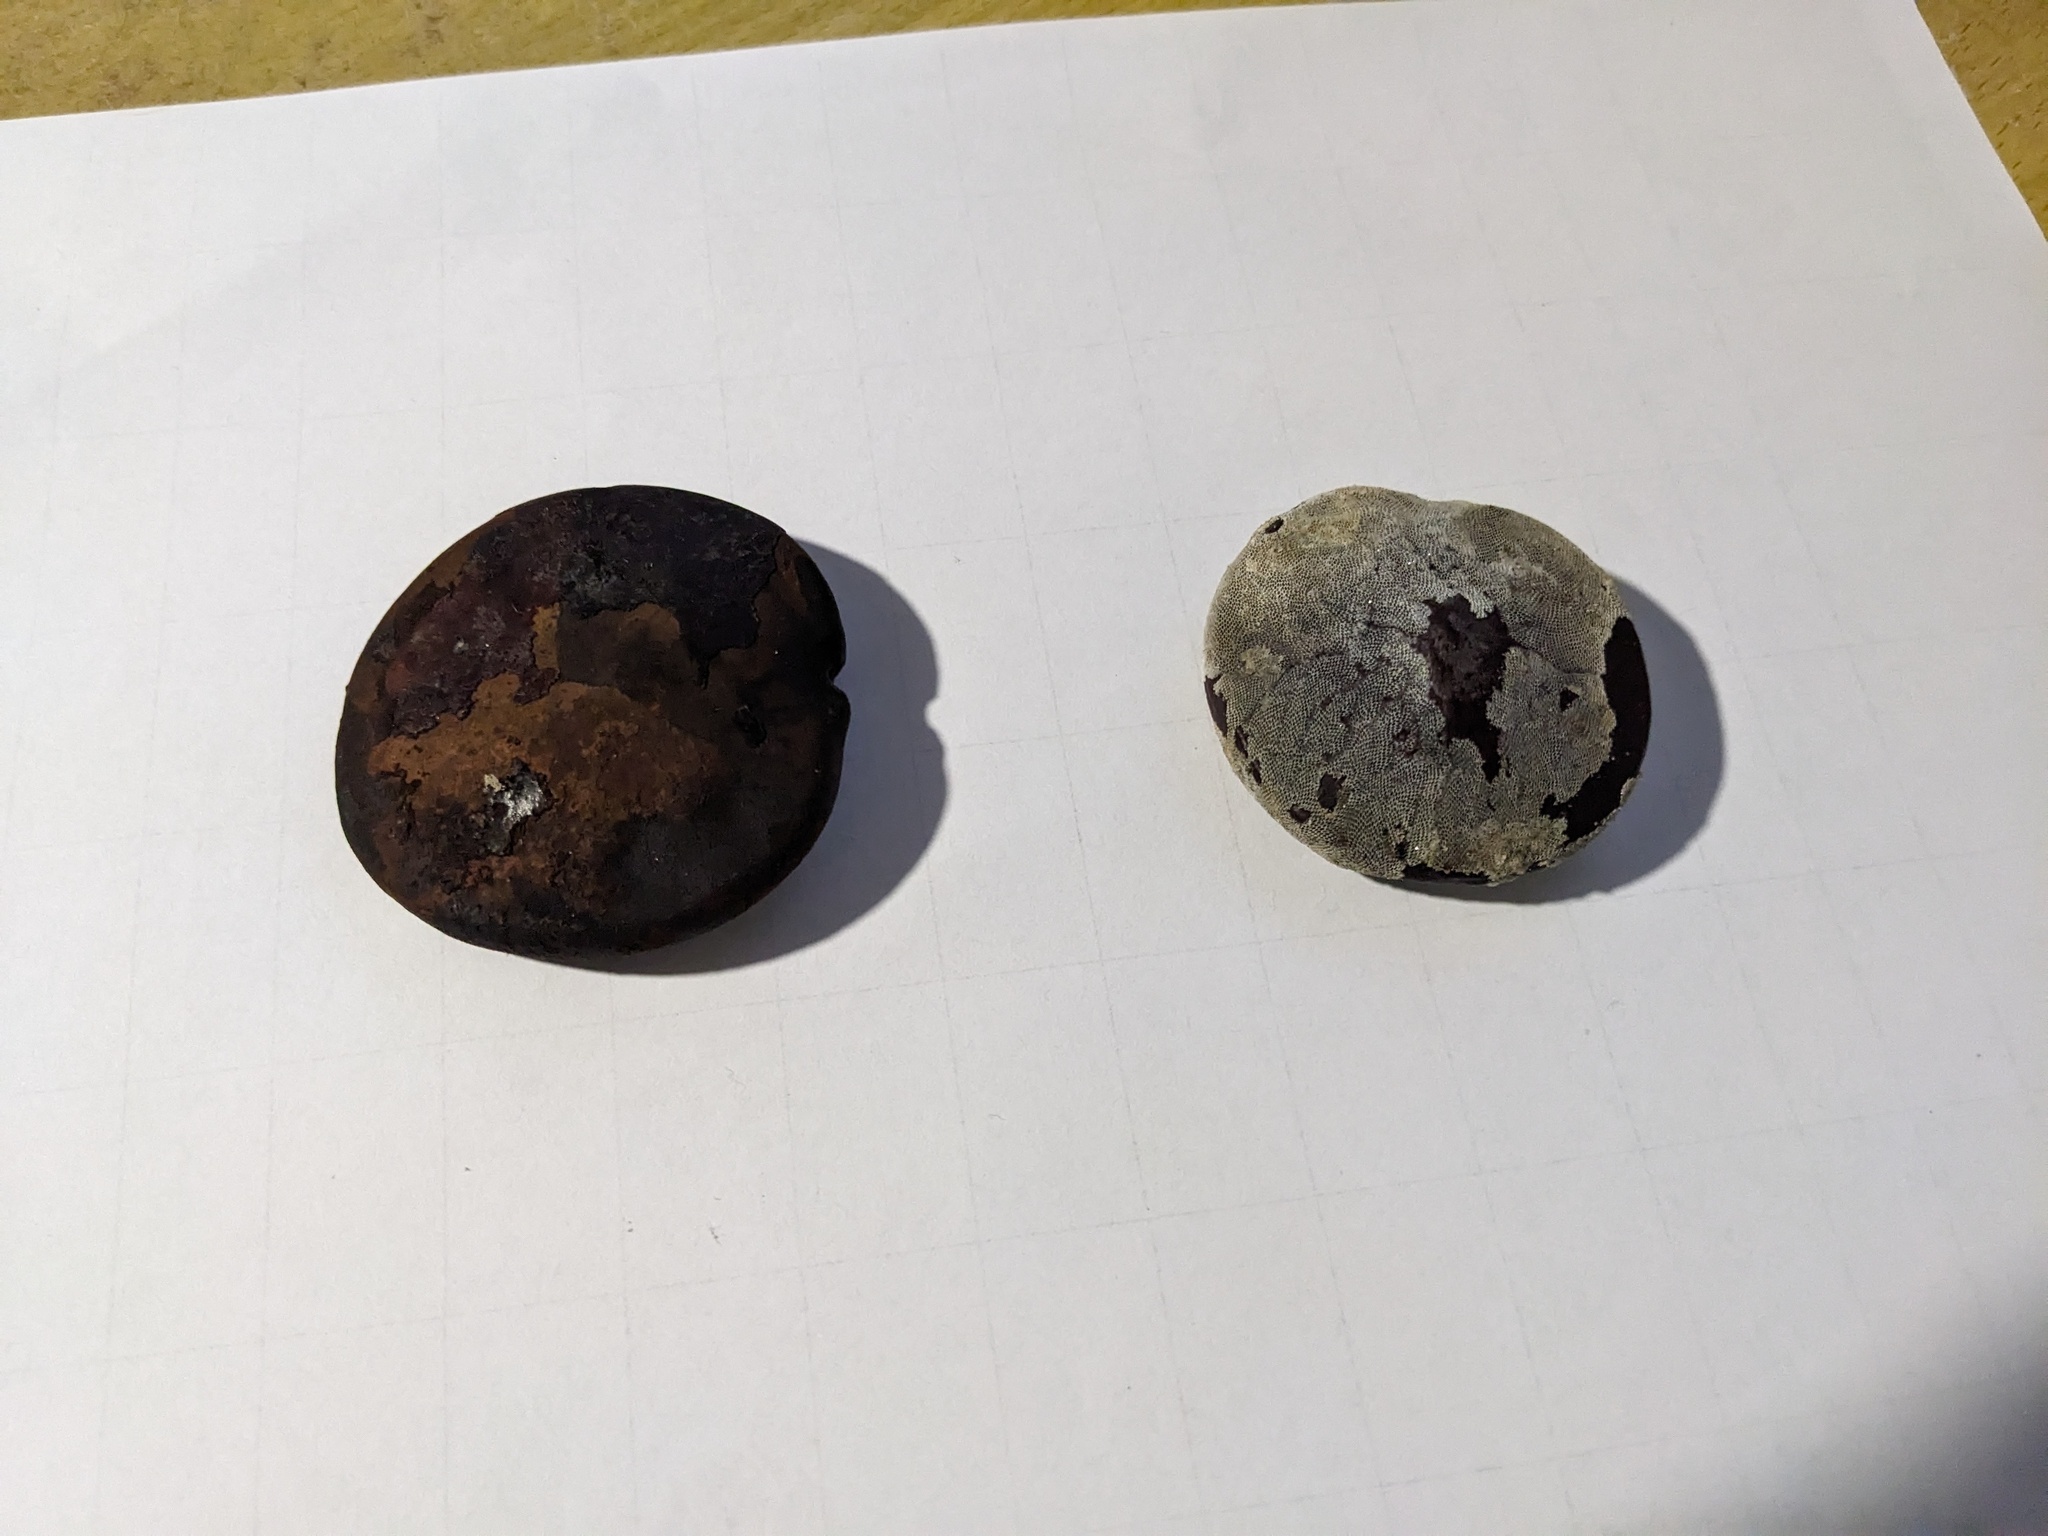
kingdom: Plantae
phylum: Tracheophyta
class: Magnoliopsida
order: Fabales
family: Fabaceae
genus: Entada
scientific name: Entada phaseoloides
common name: Matchbox-bean
